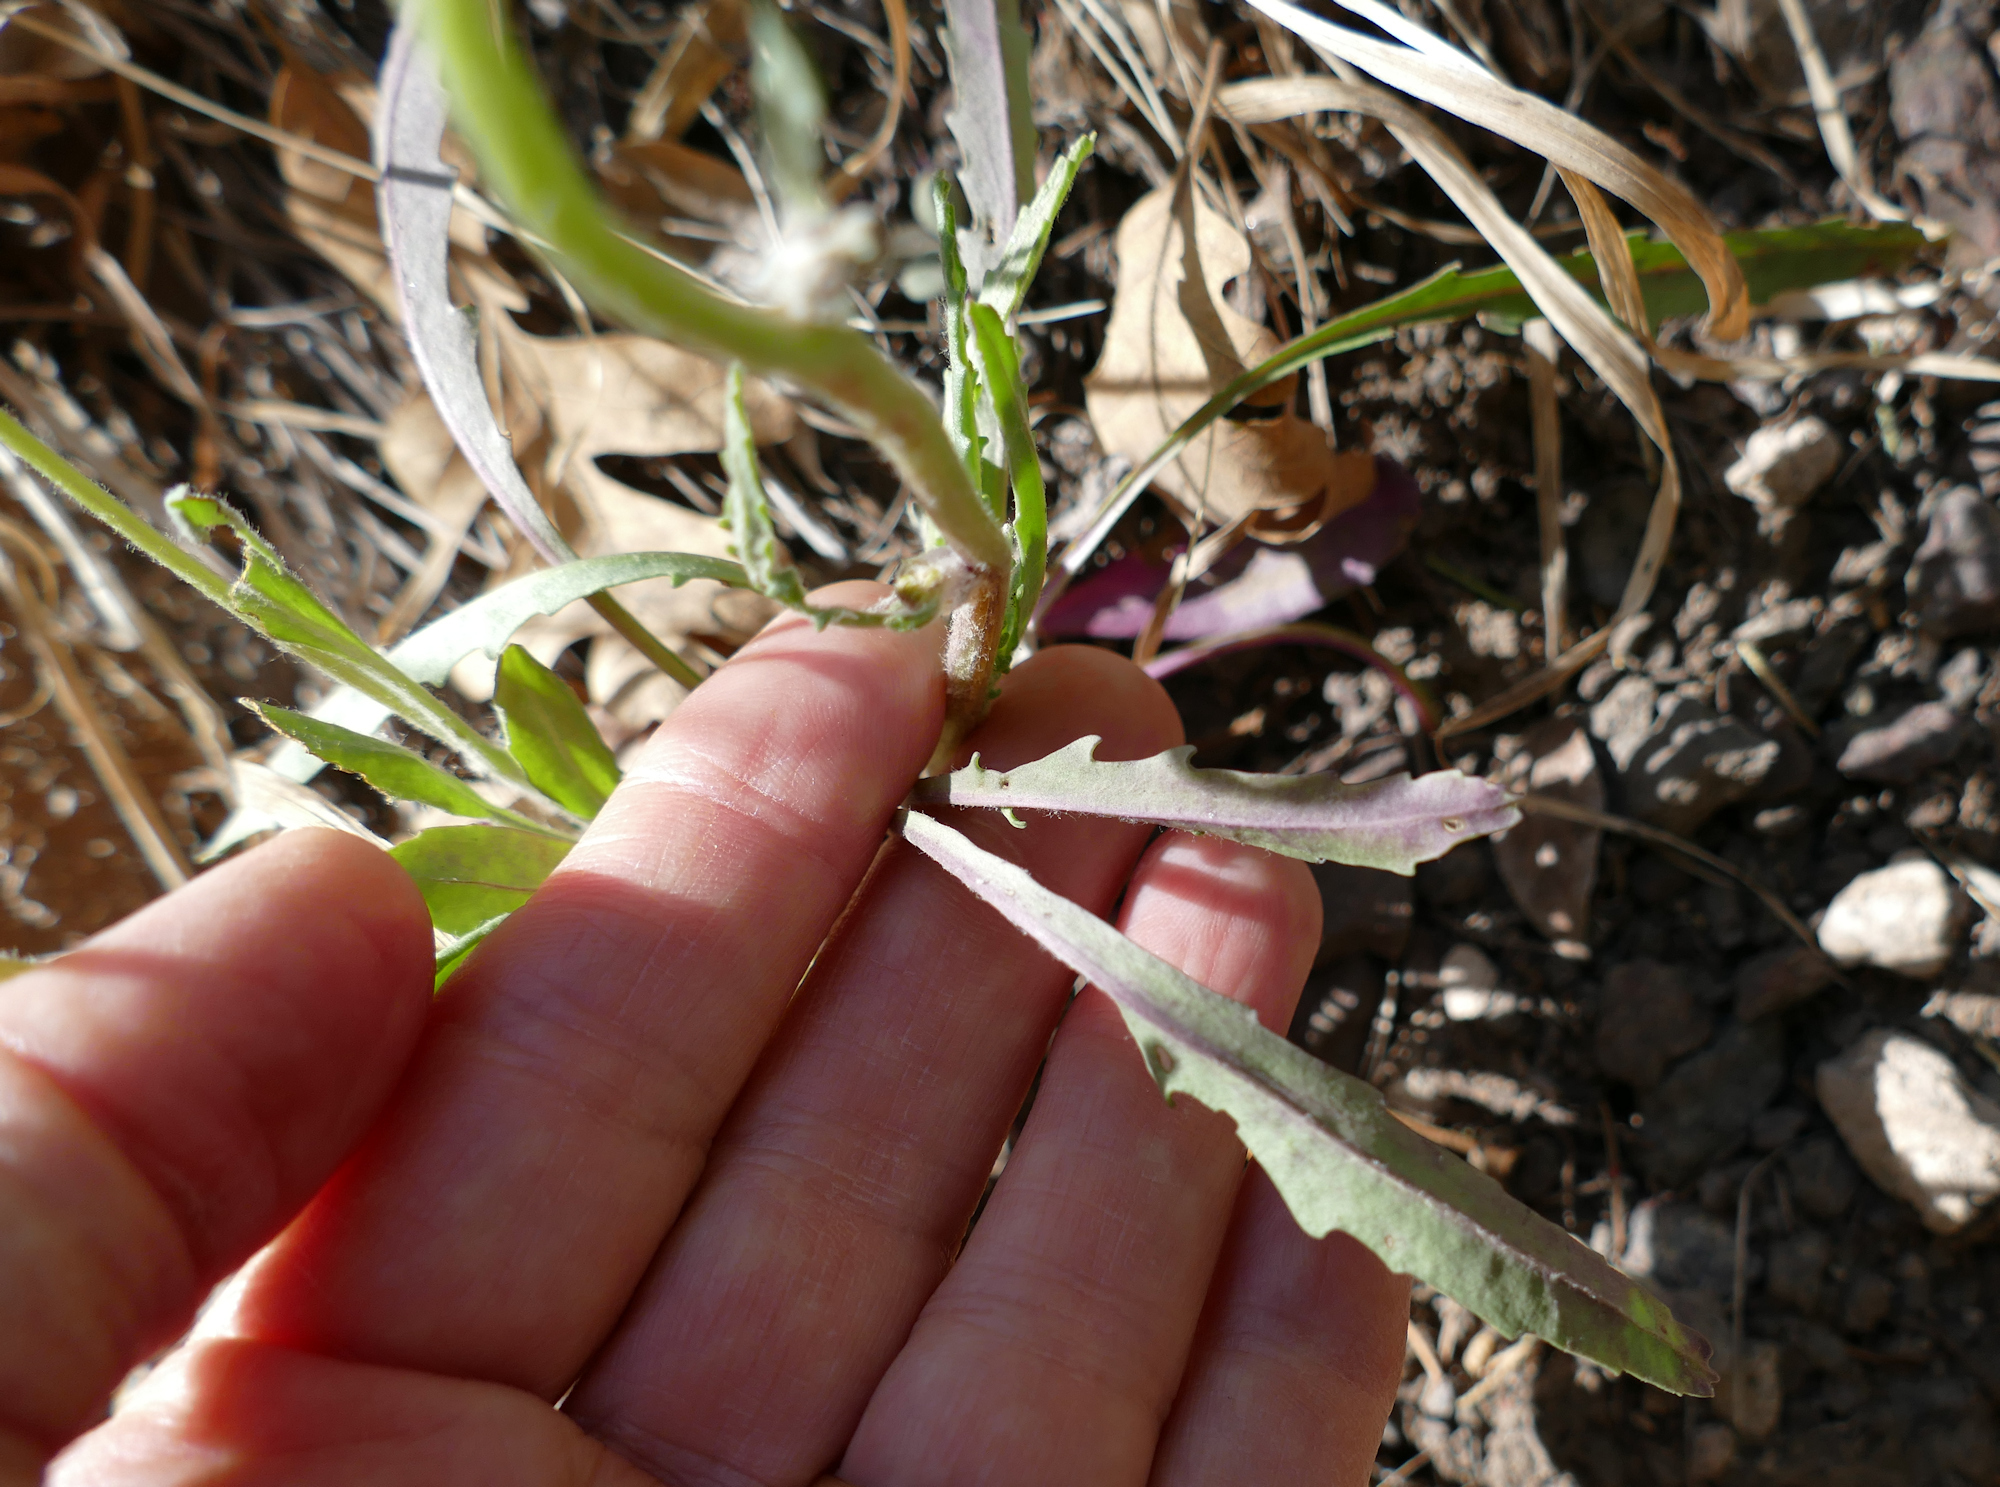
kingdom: Plantae
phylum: Tracheophyta
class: Magnoliopsida
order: Asterales
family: Asteraceae
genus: Packera
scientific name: Packera cynthioides
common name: Mountain ragwort
